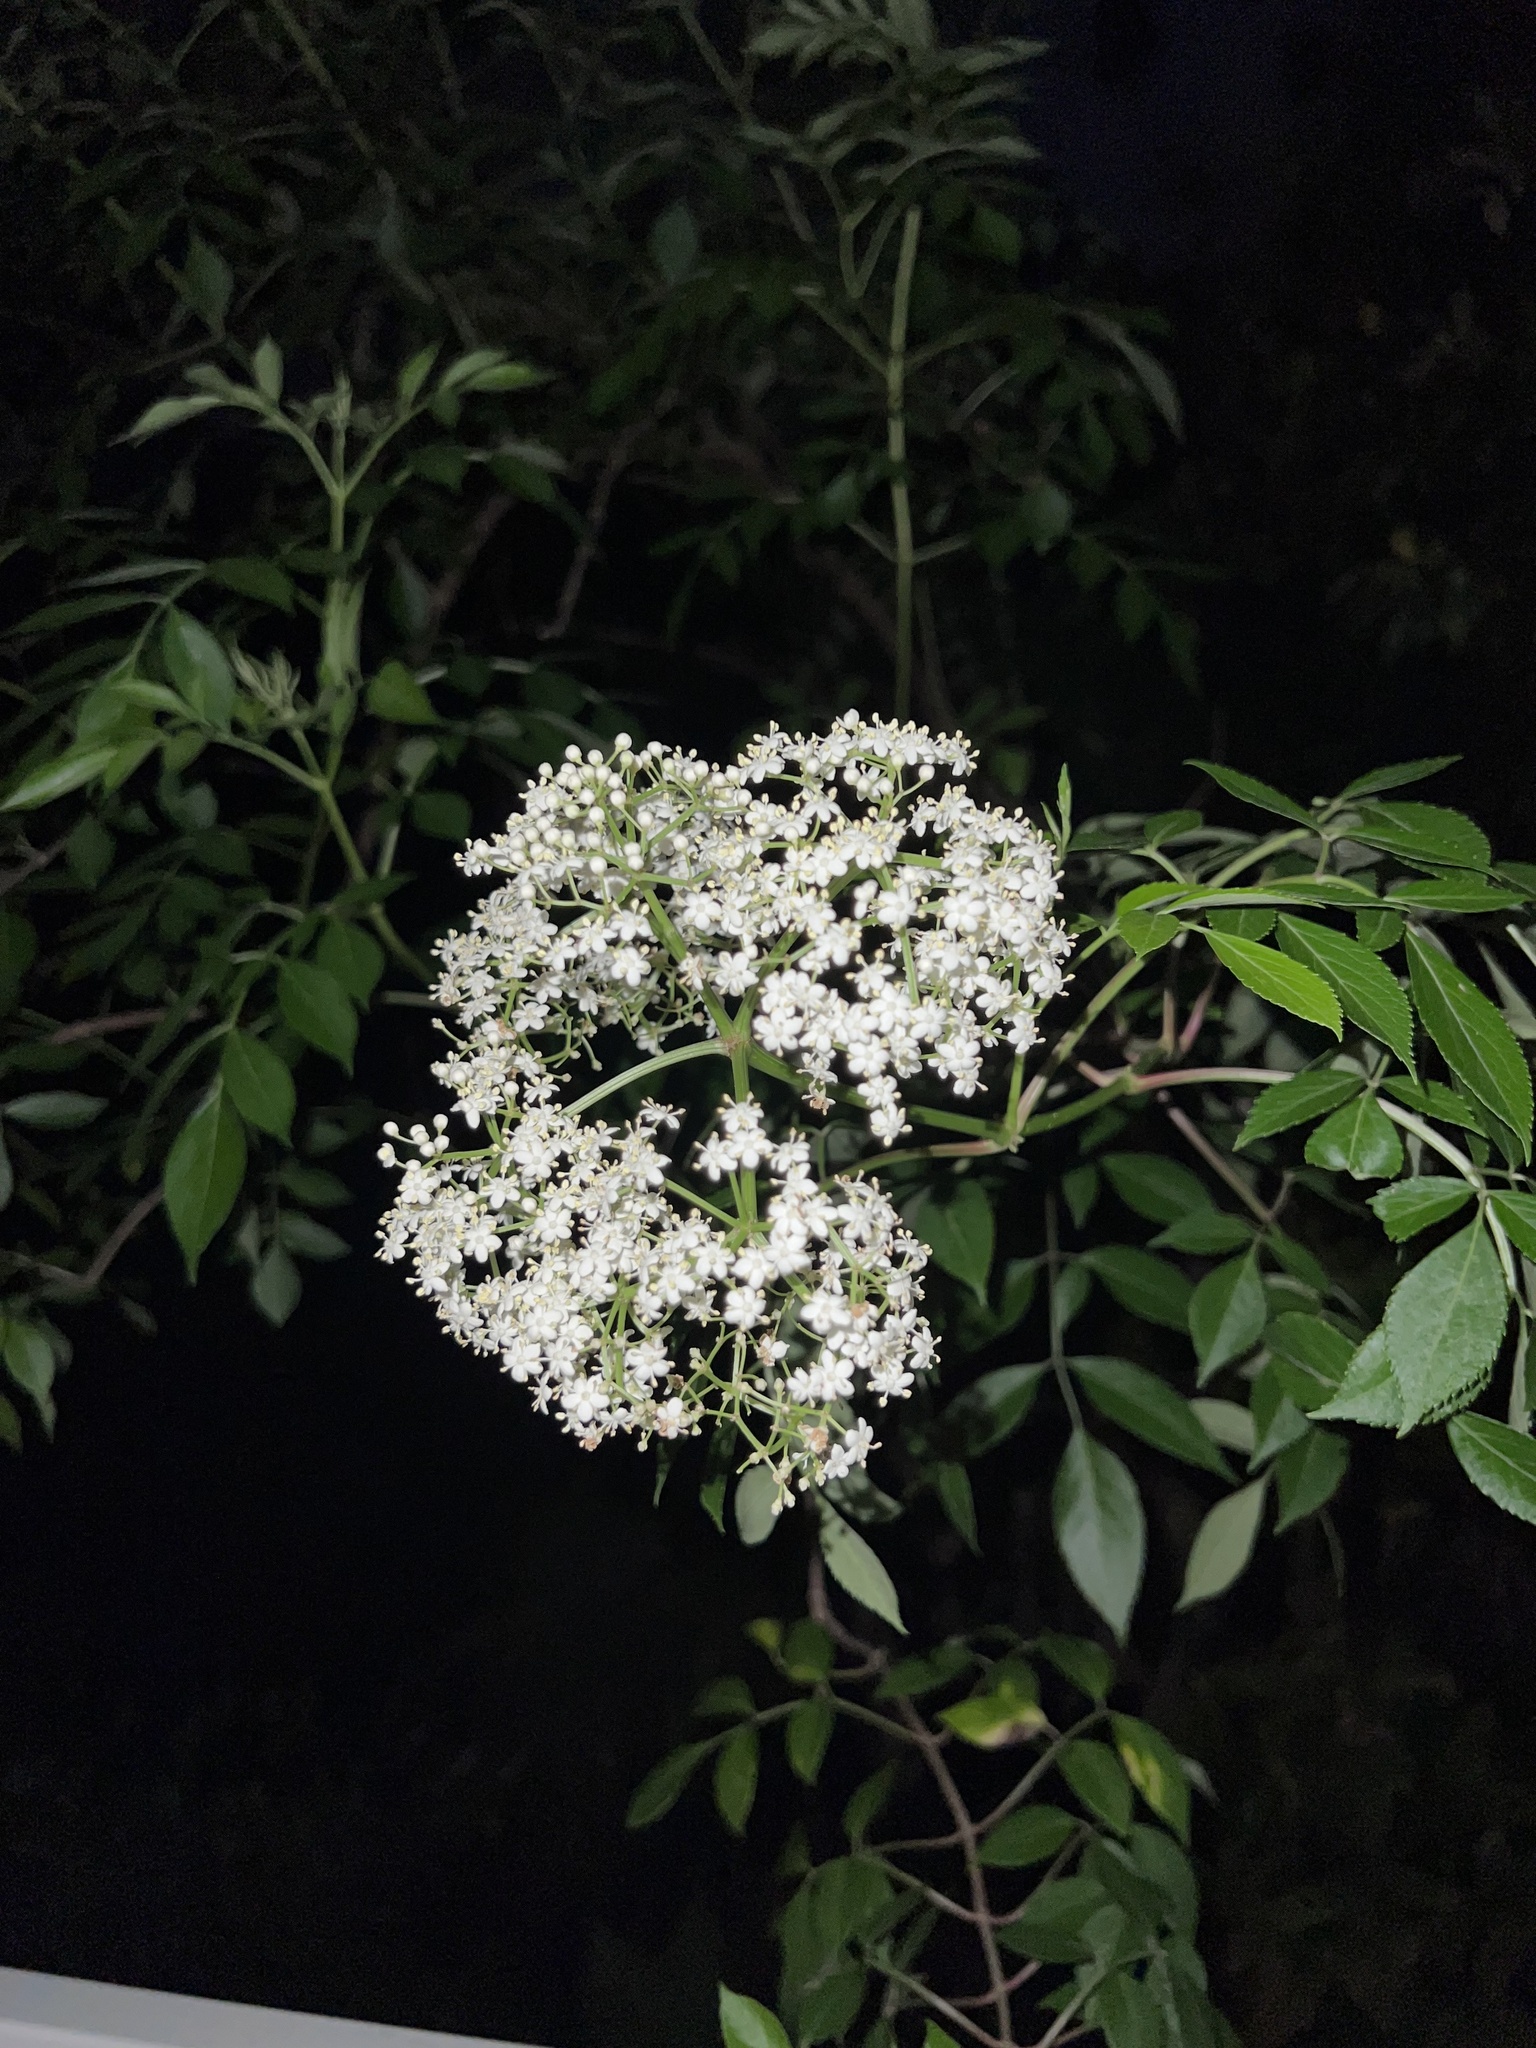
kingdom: Plantae
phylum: Tracheophyta
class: Magnoliopsida
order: Dipsacales
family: Viburnaceae
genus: Sambucus
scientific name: Sambucus canadensis
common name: American elder
